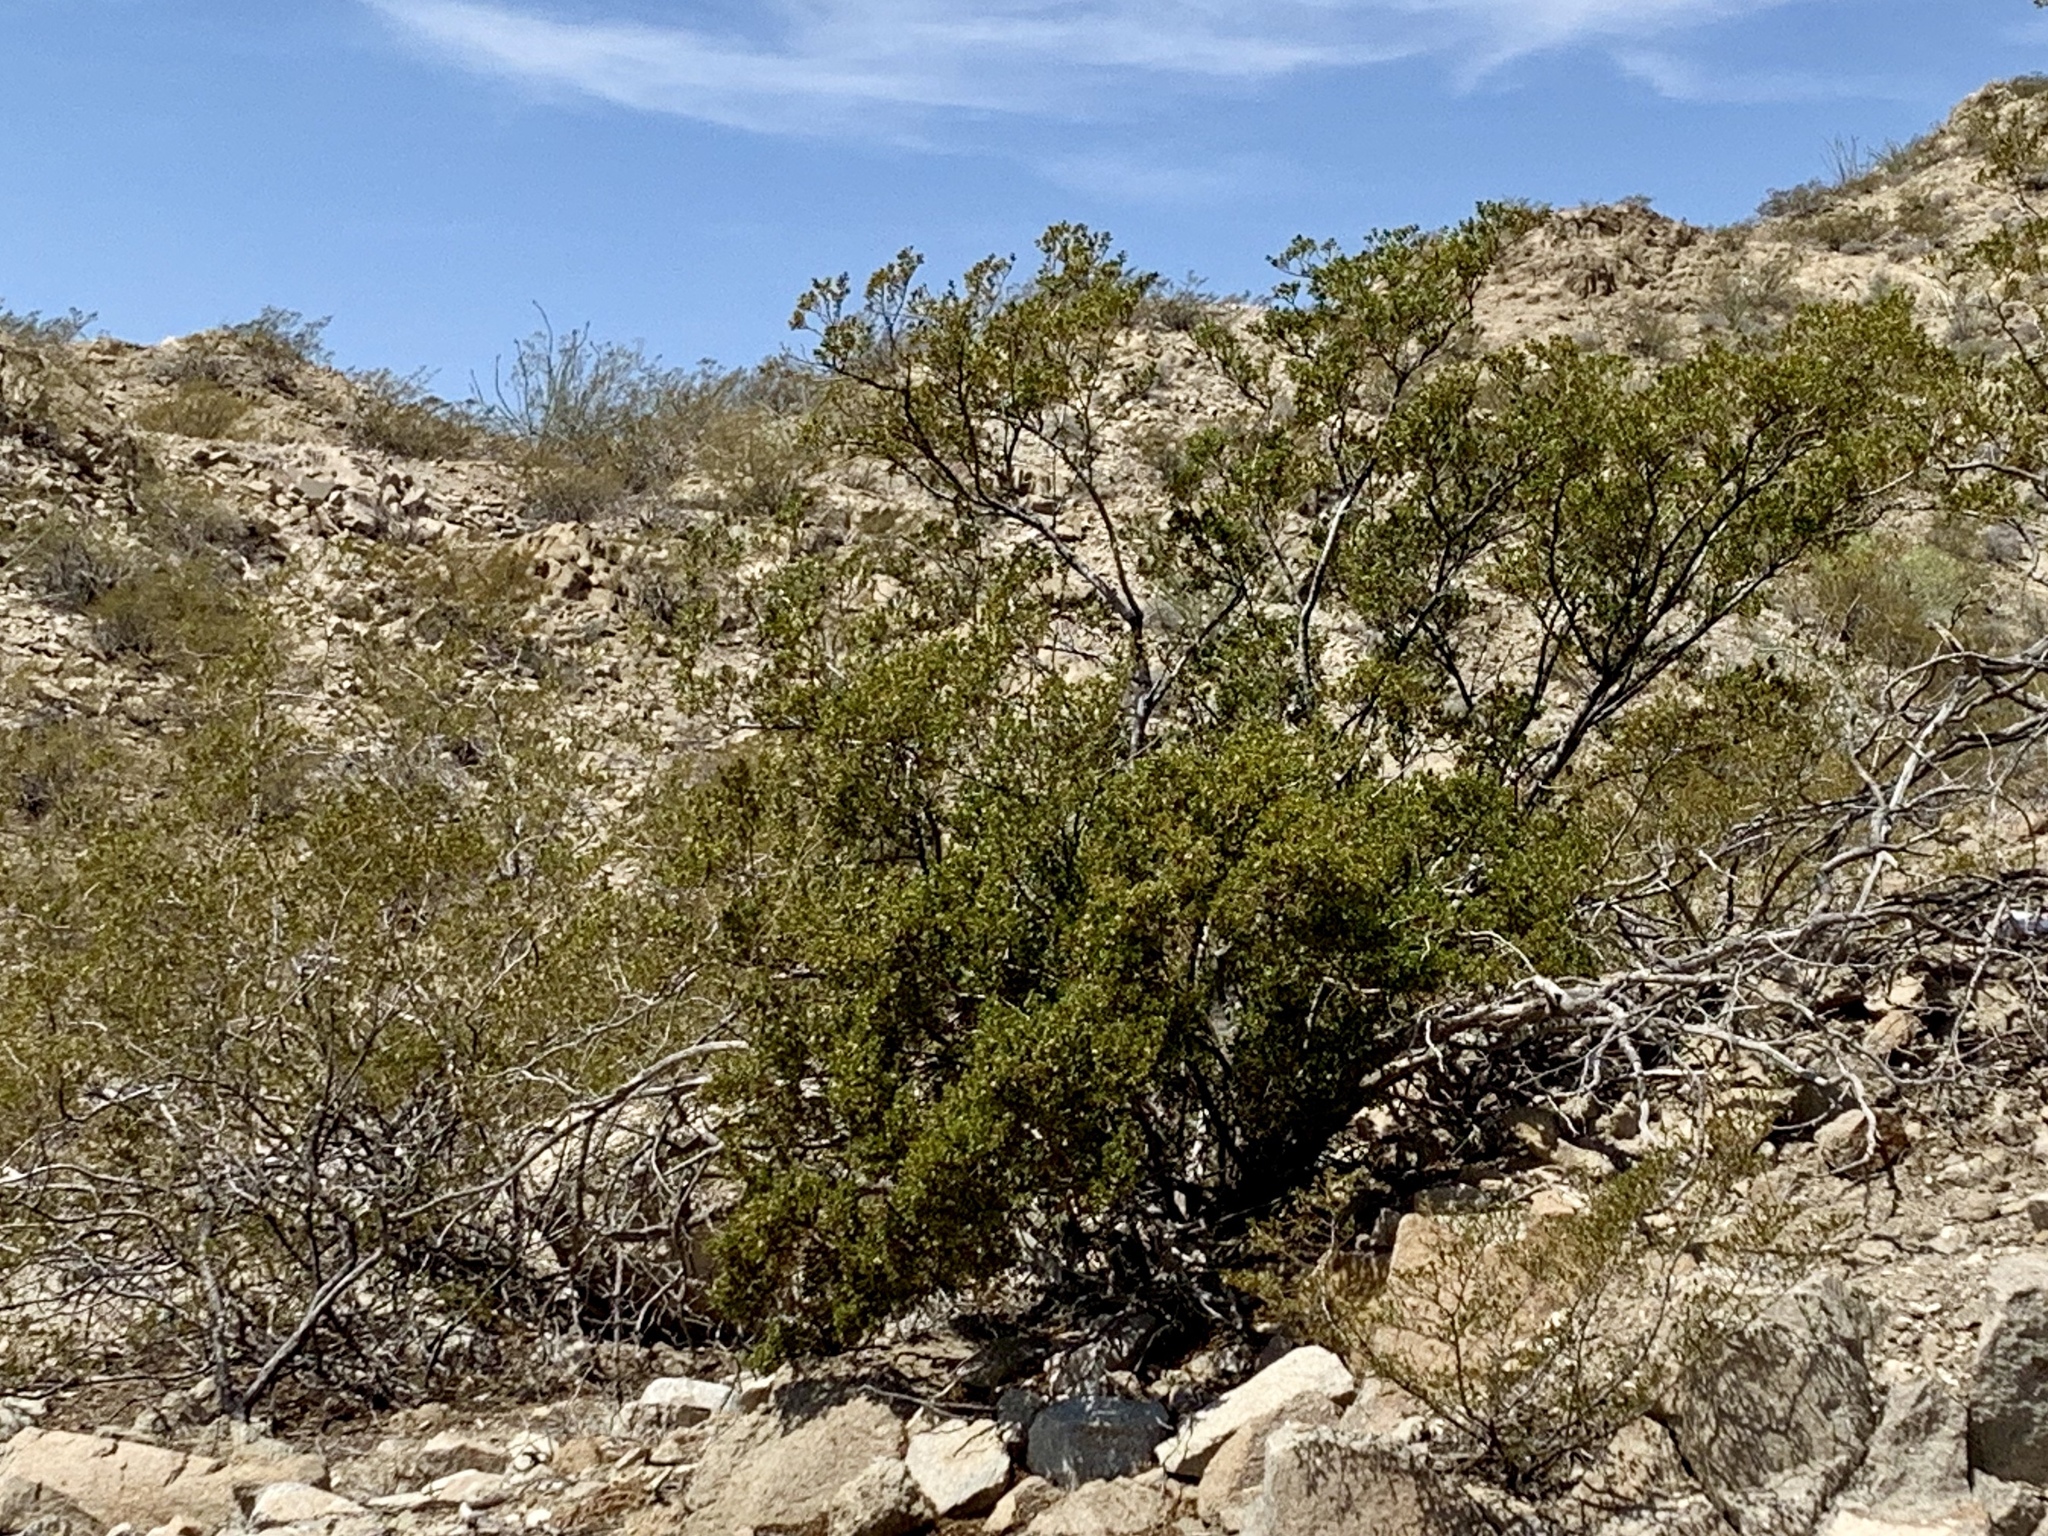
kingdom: Plantae
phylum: Tracheophyta
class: Magnoliopsida
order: Zygophyllales
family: Zygophyllaceae
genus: Larrea
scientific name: Larrea tridentata
